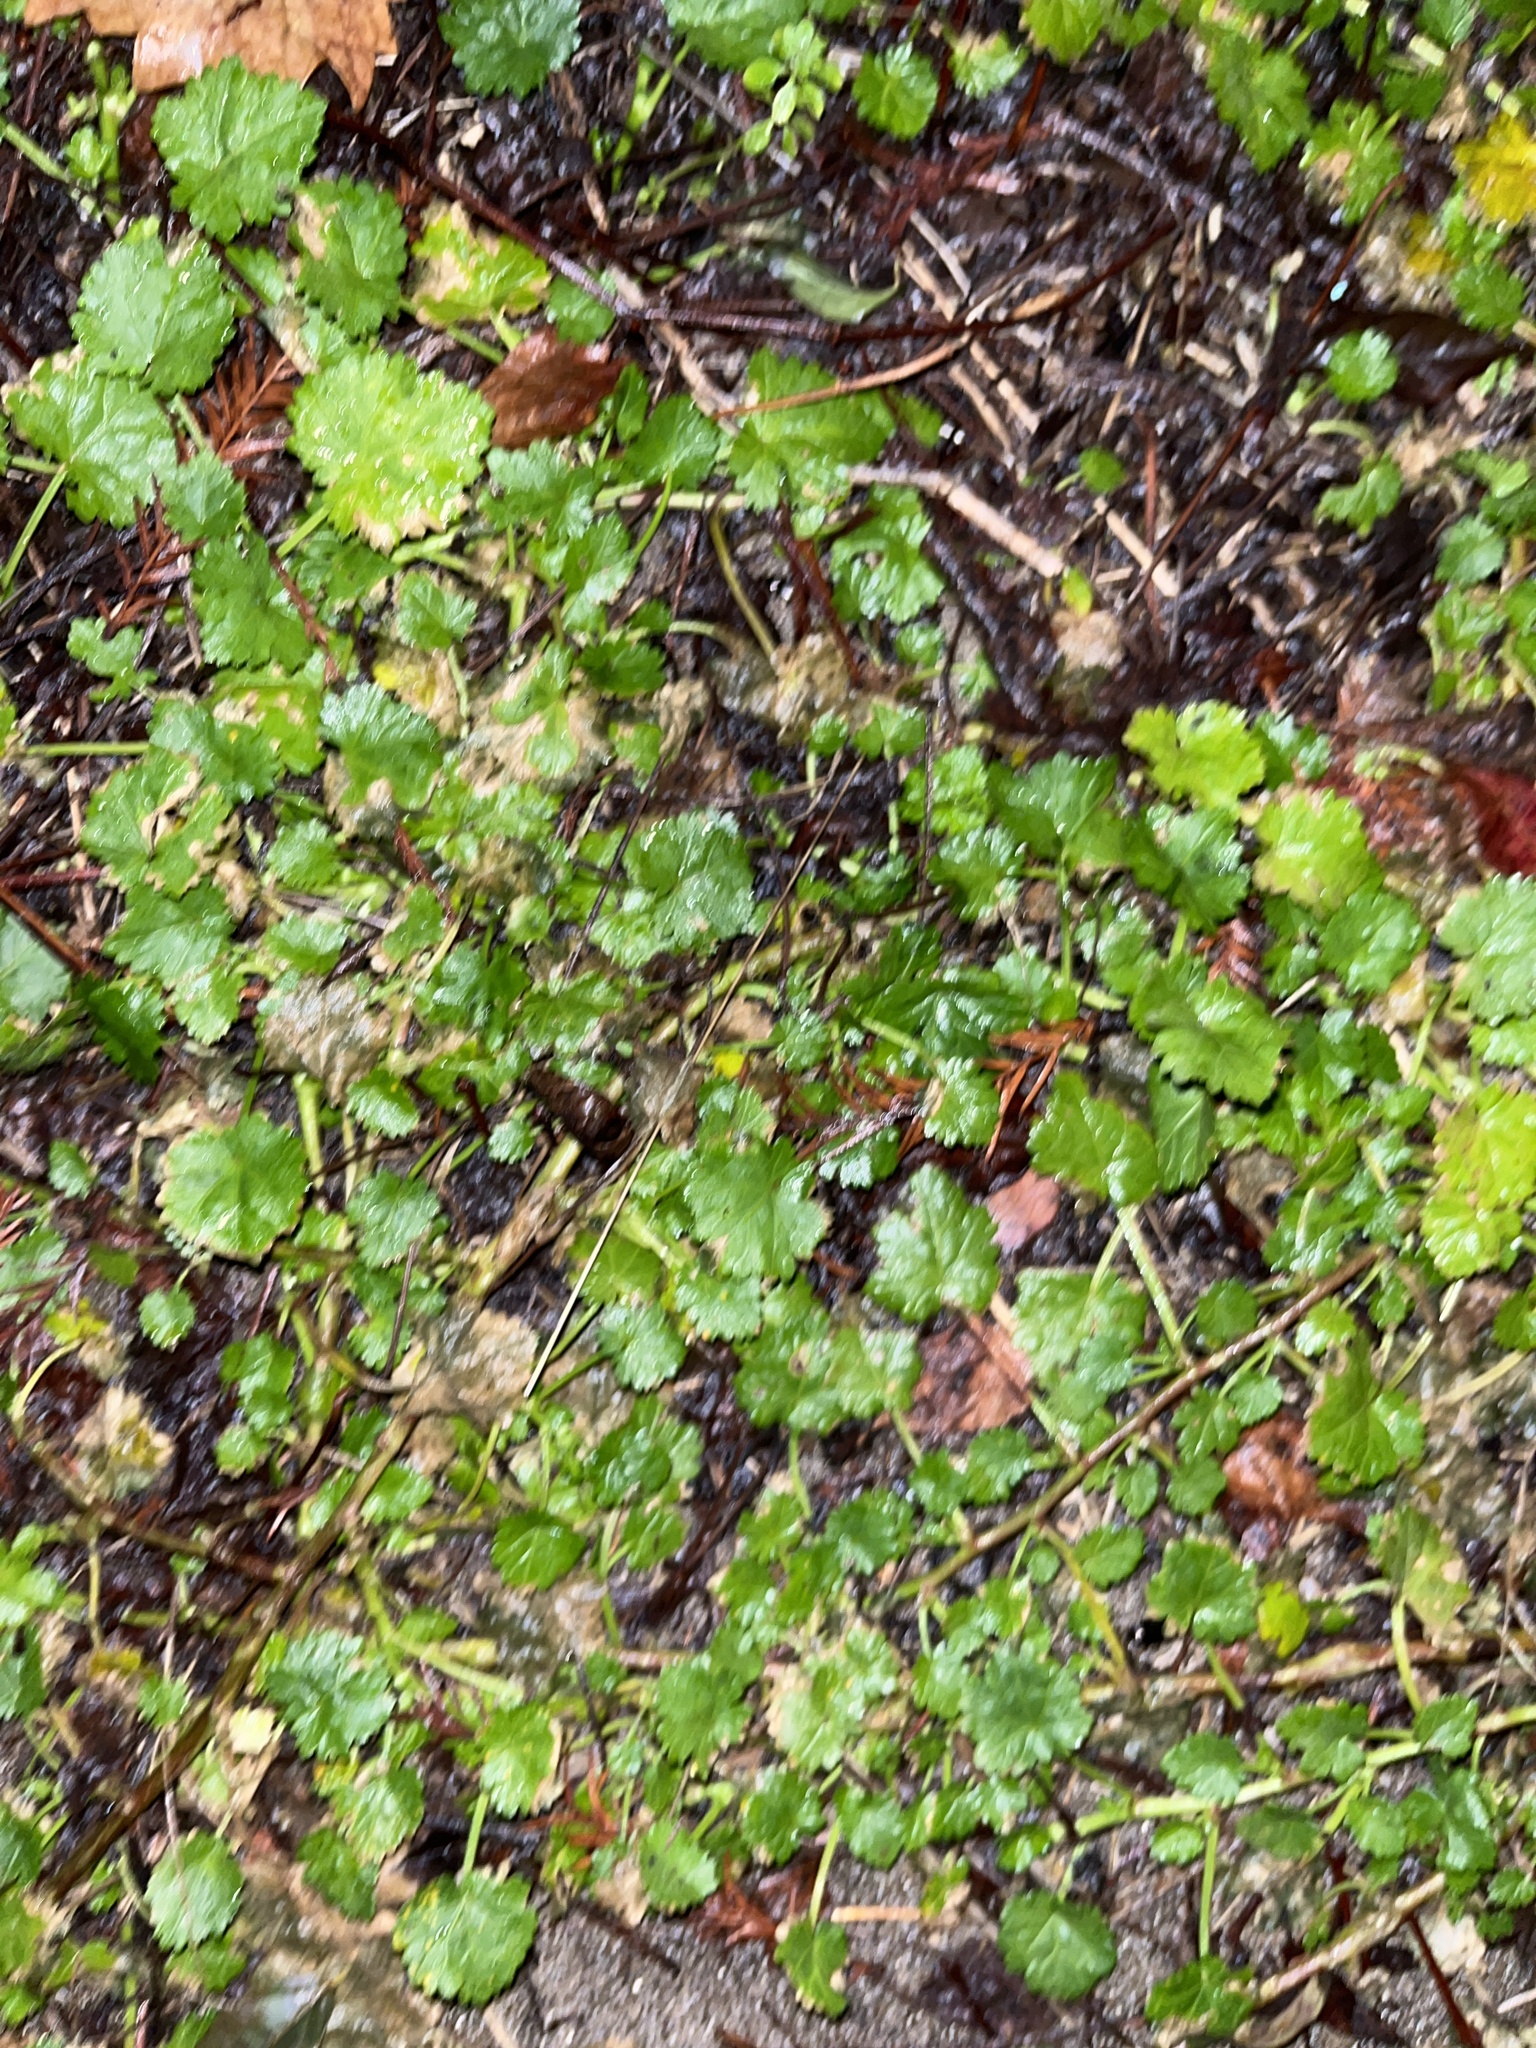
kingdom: Plantae
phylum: Tracheophyta
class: Magnoliopsida
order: Malvales
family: Malvaceae
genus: Modiola
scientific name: Modiola caroliniana
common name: Carolina bristlemallow
